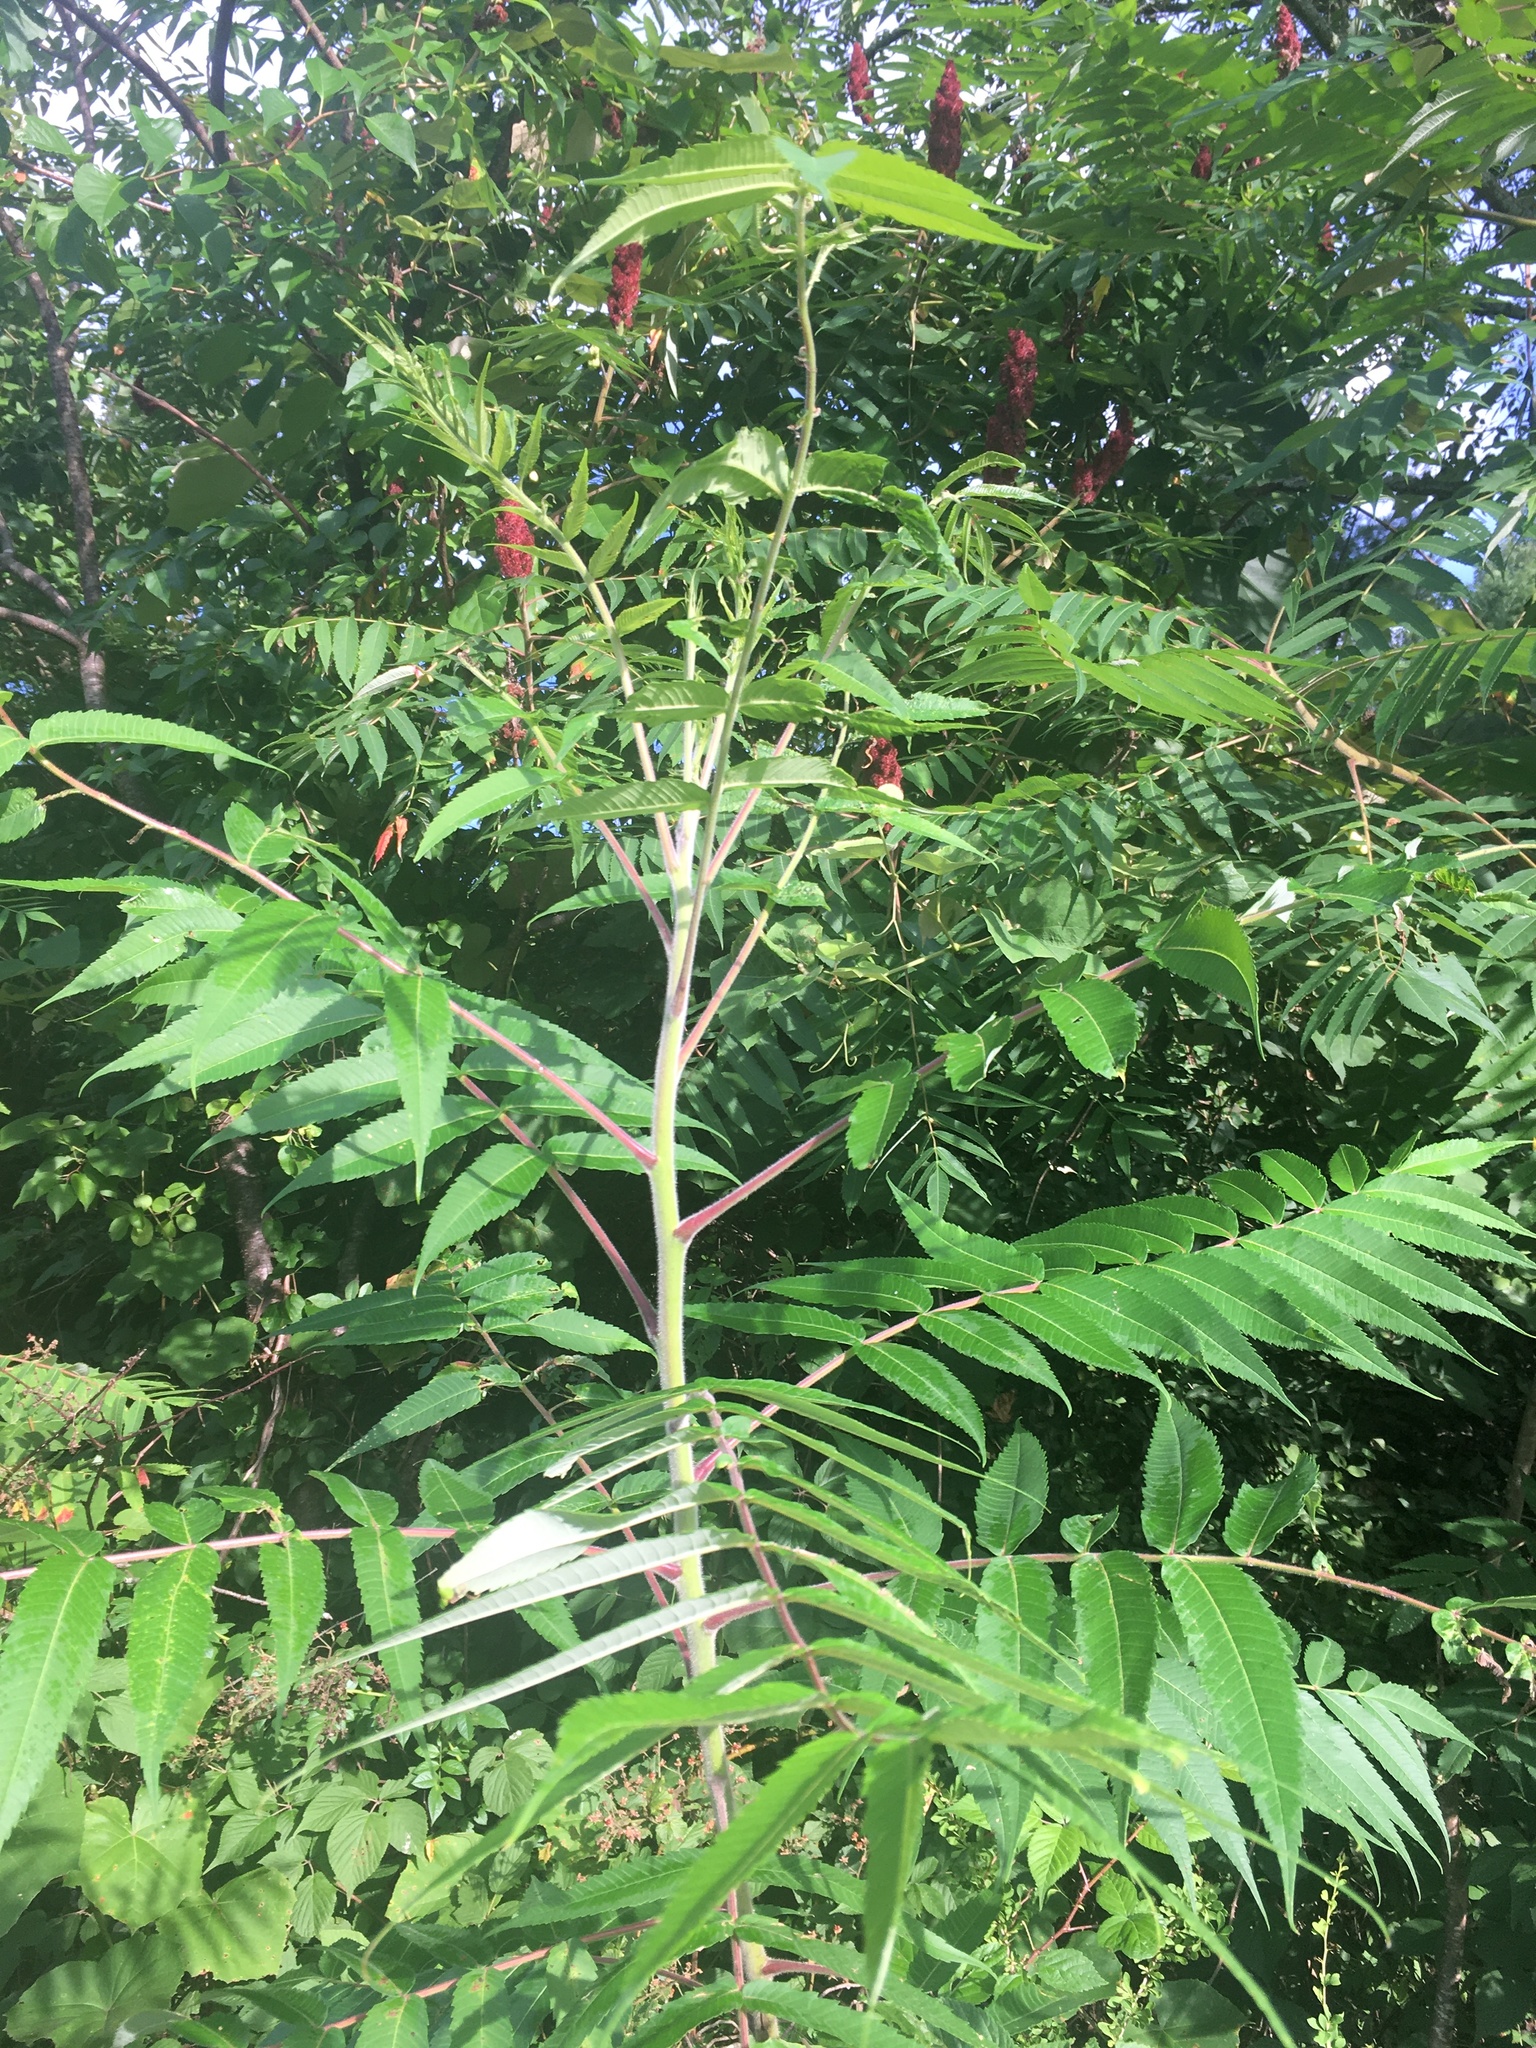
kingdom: Plantae
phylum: Tracheophyta
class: Magnoliopsida
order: Sapindales
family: Anacardiaceae
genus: Rhus
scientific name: Rhus typhina
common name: Staghorn sumac
